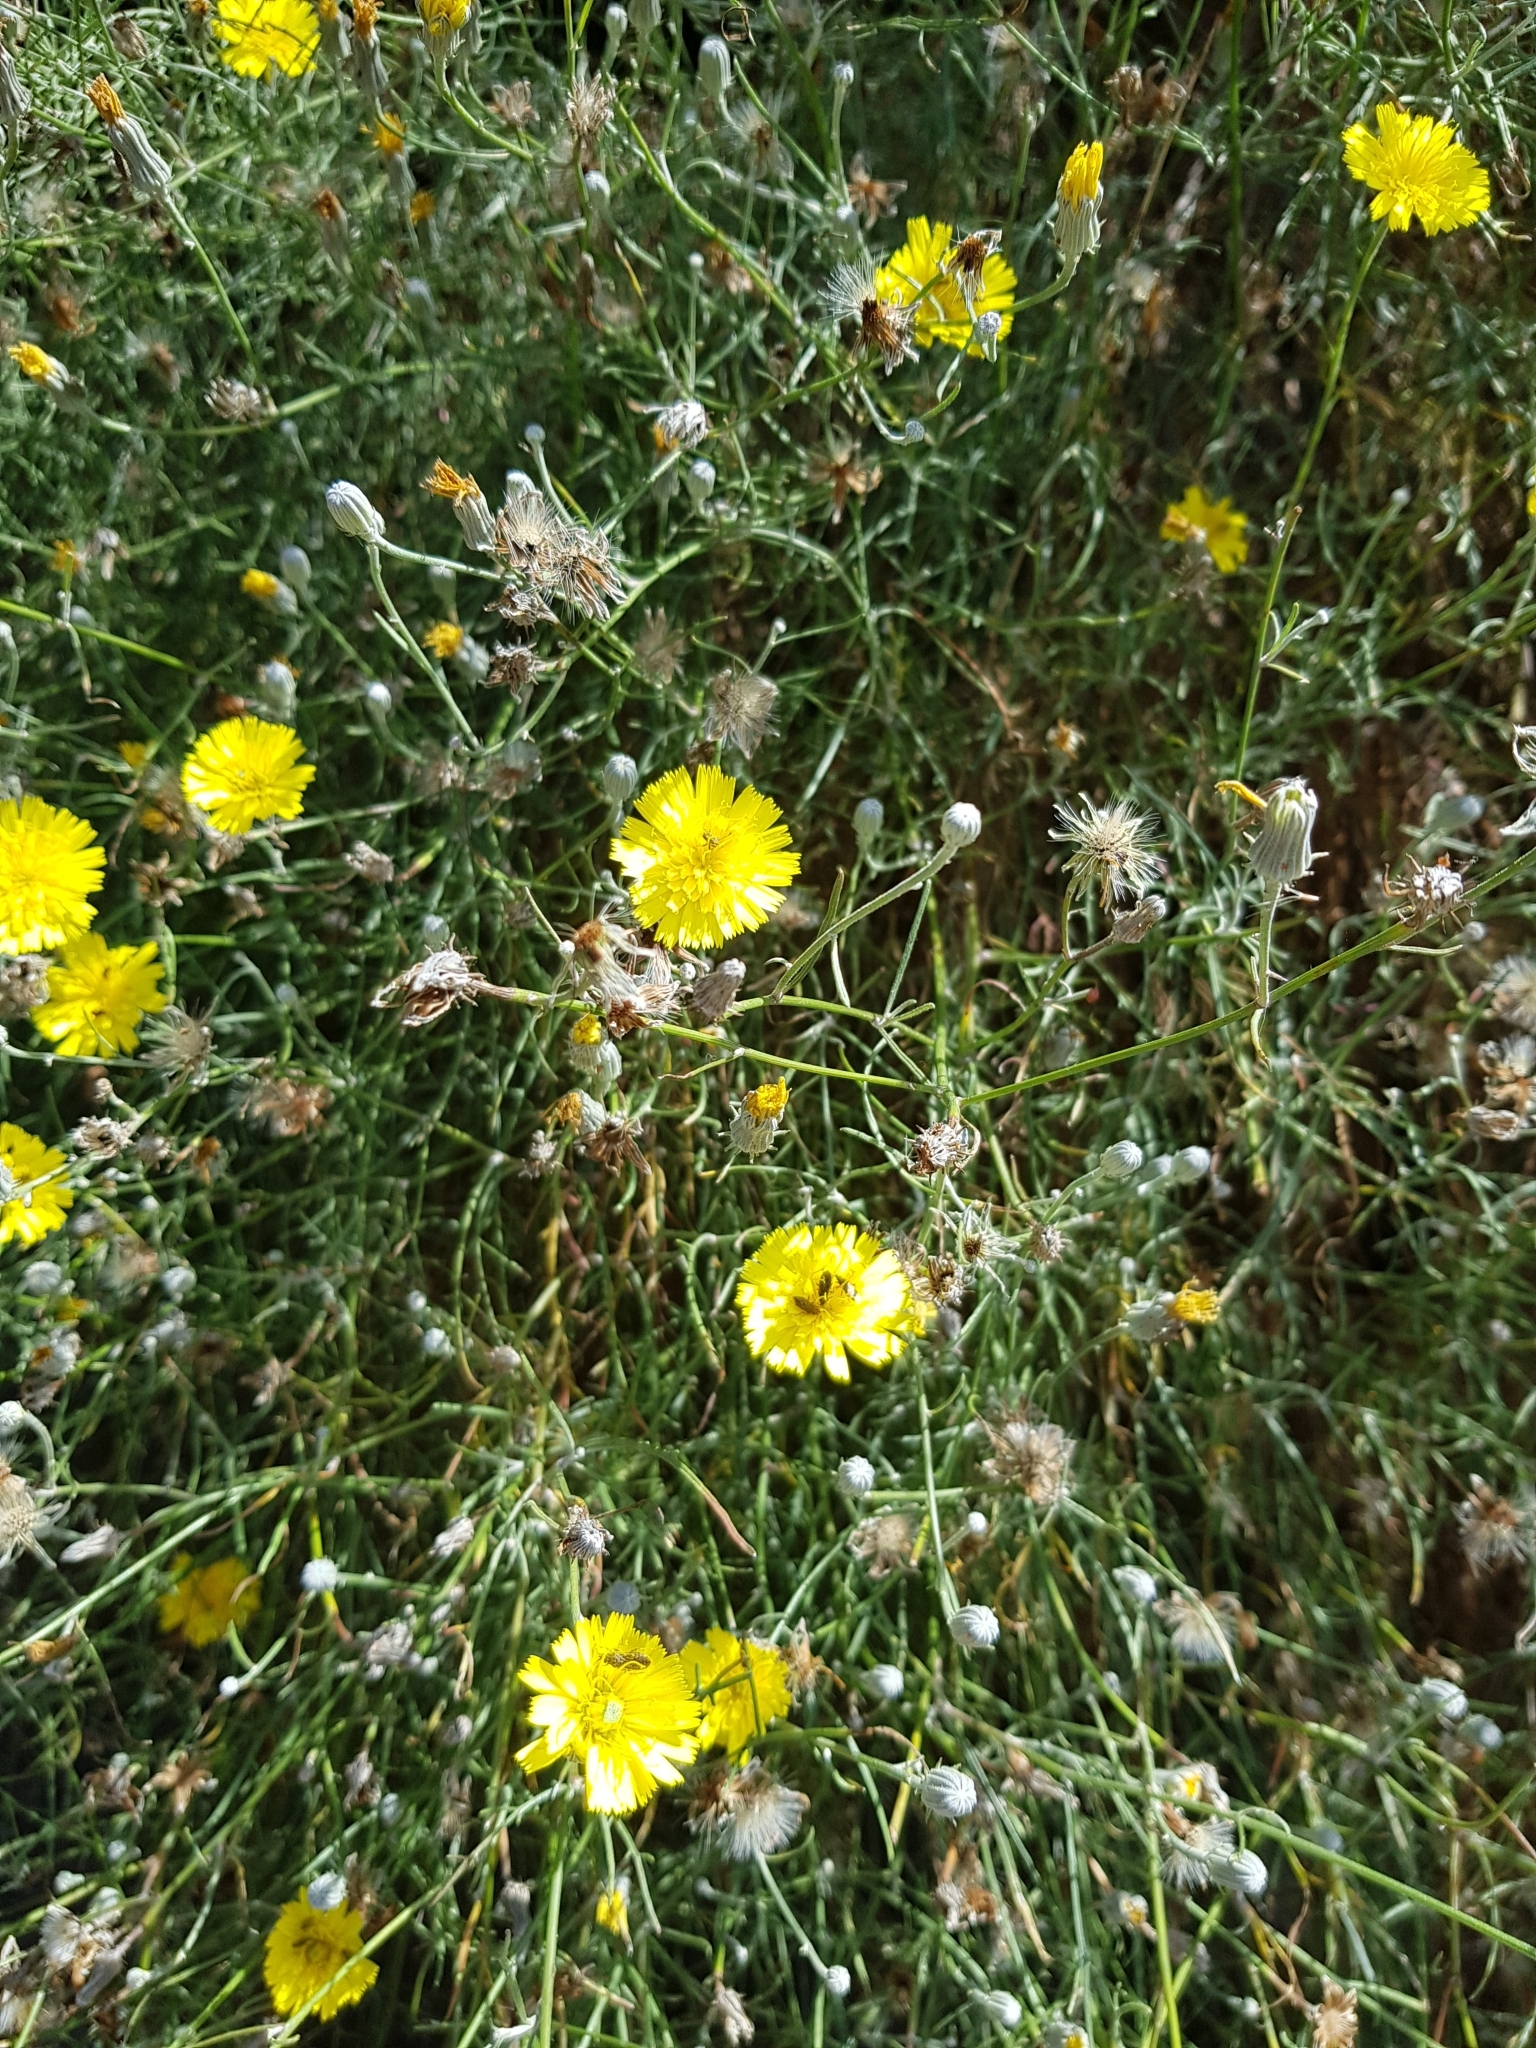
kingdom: Plantae
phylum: Tracheophyta
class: Magnoliopsida
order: Asterales
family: Asteraceae
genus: Tolpis
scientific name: Tolpis succulenta
